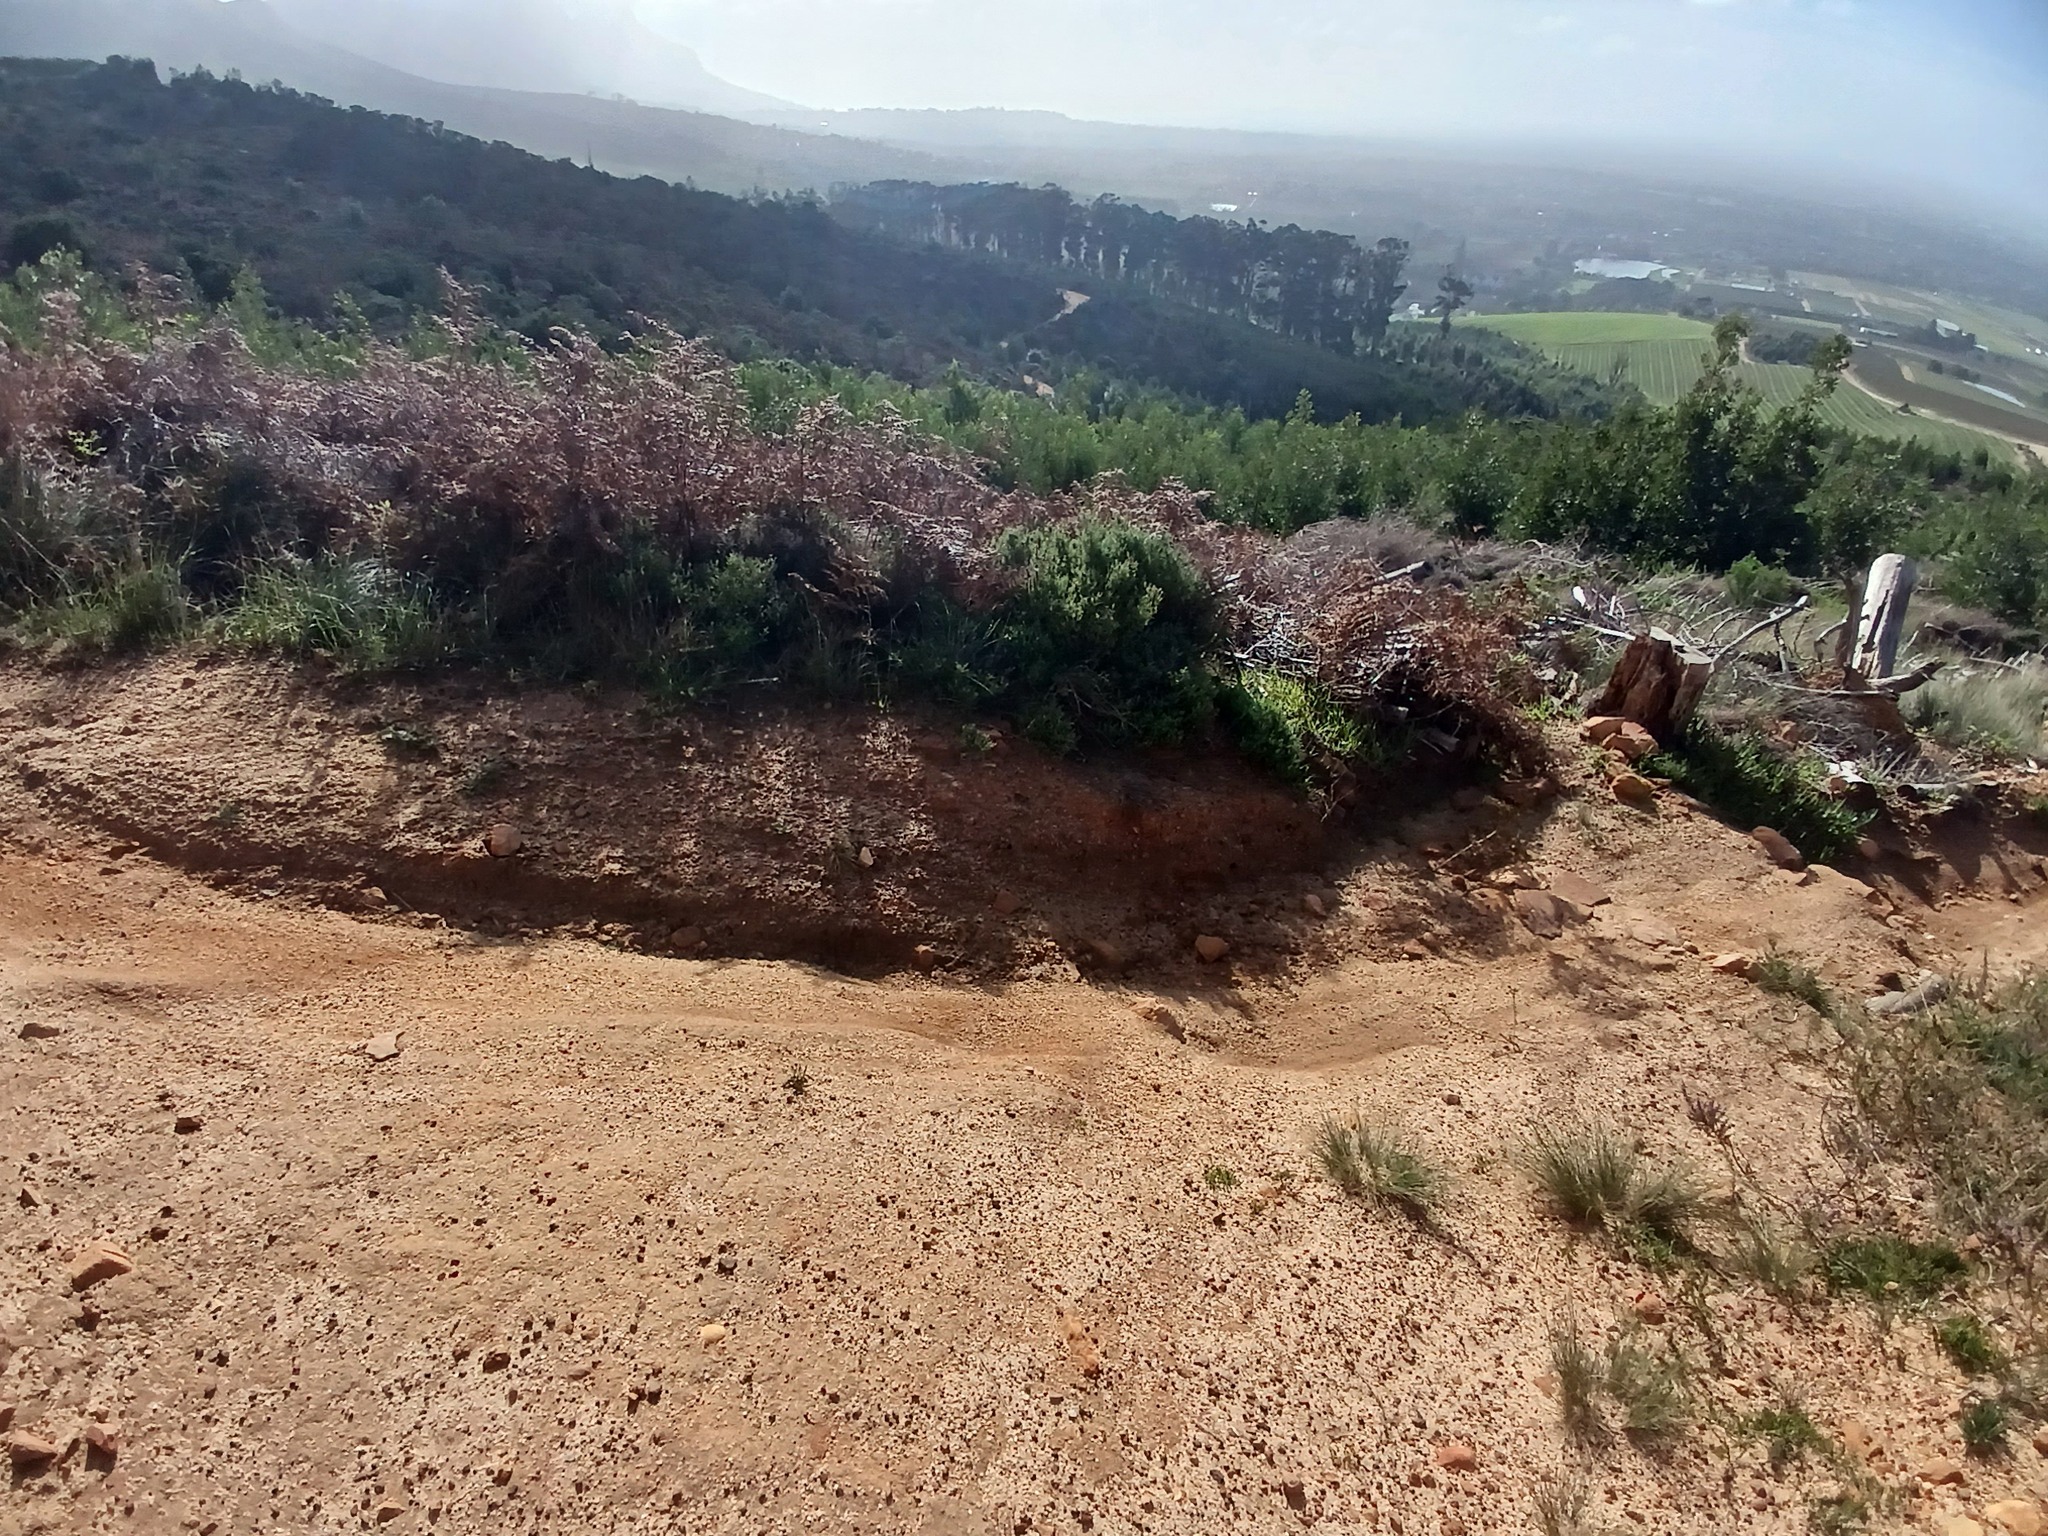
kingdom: Plantae
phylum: Tracheophyta
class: Polypodiopsida
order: Polypodiales
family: Dennstaedtiaceae
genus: Pteridium
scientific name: Pteridium aquilinum
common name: Bracken
